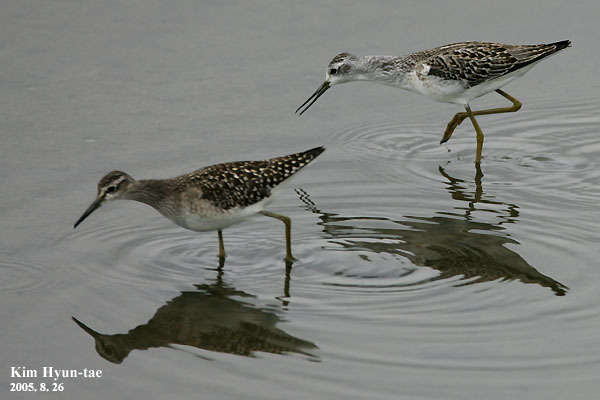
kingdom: Animalia
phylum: Chordata
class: Aves
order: Charadriiformes
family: Scolopacidae
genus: Tringa
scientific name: Tringa glareola
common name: Wood sandpiper
